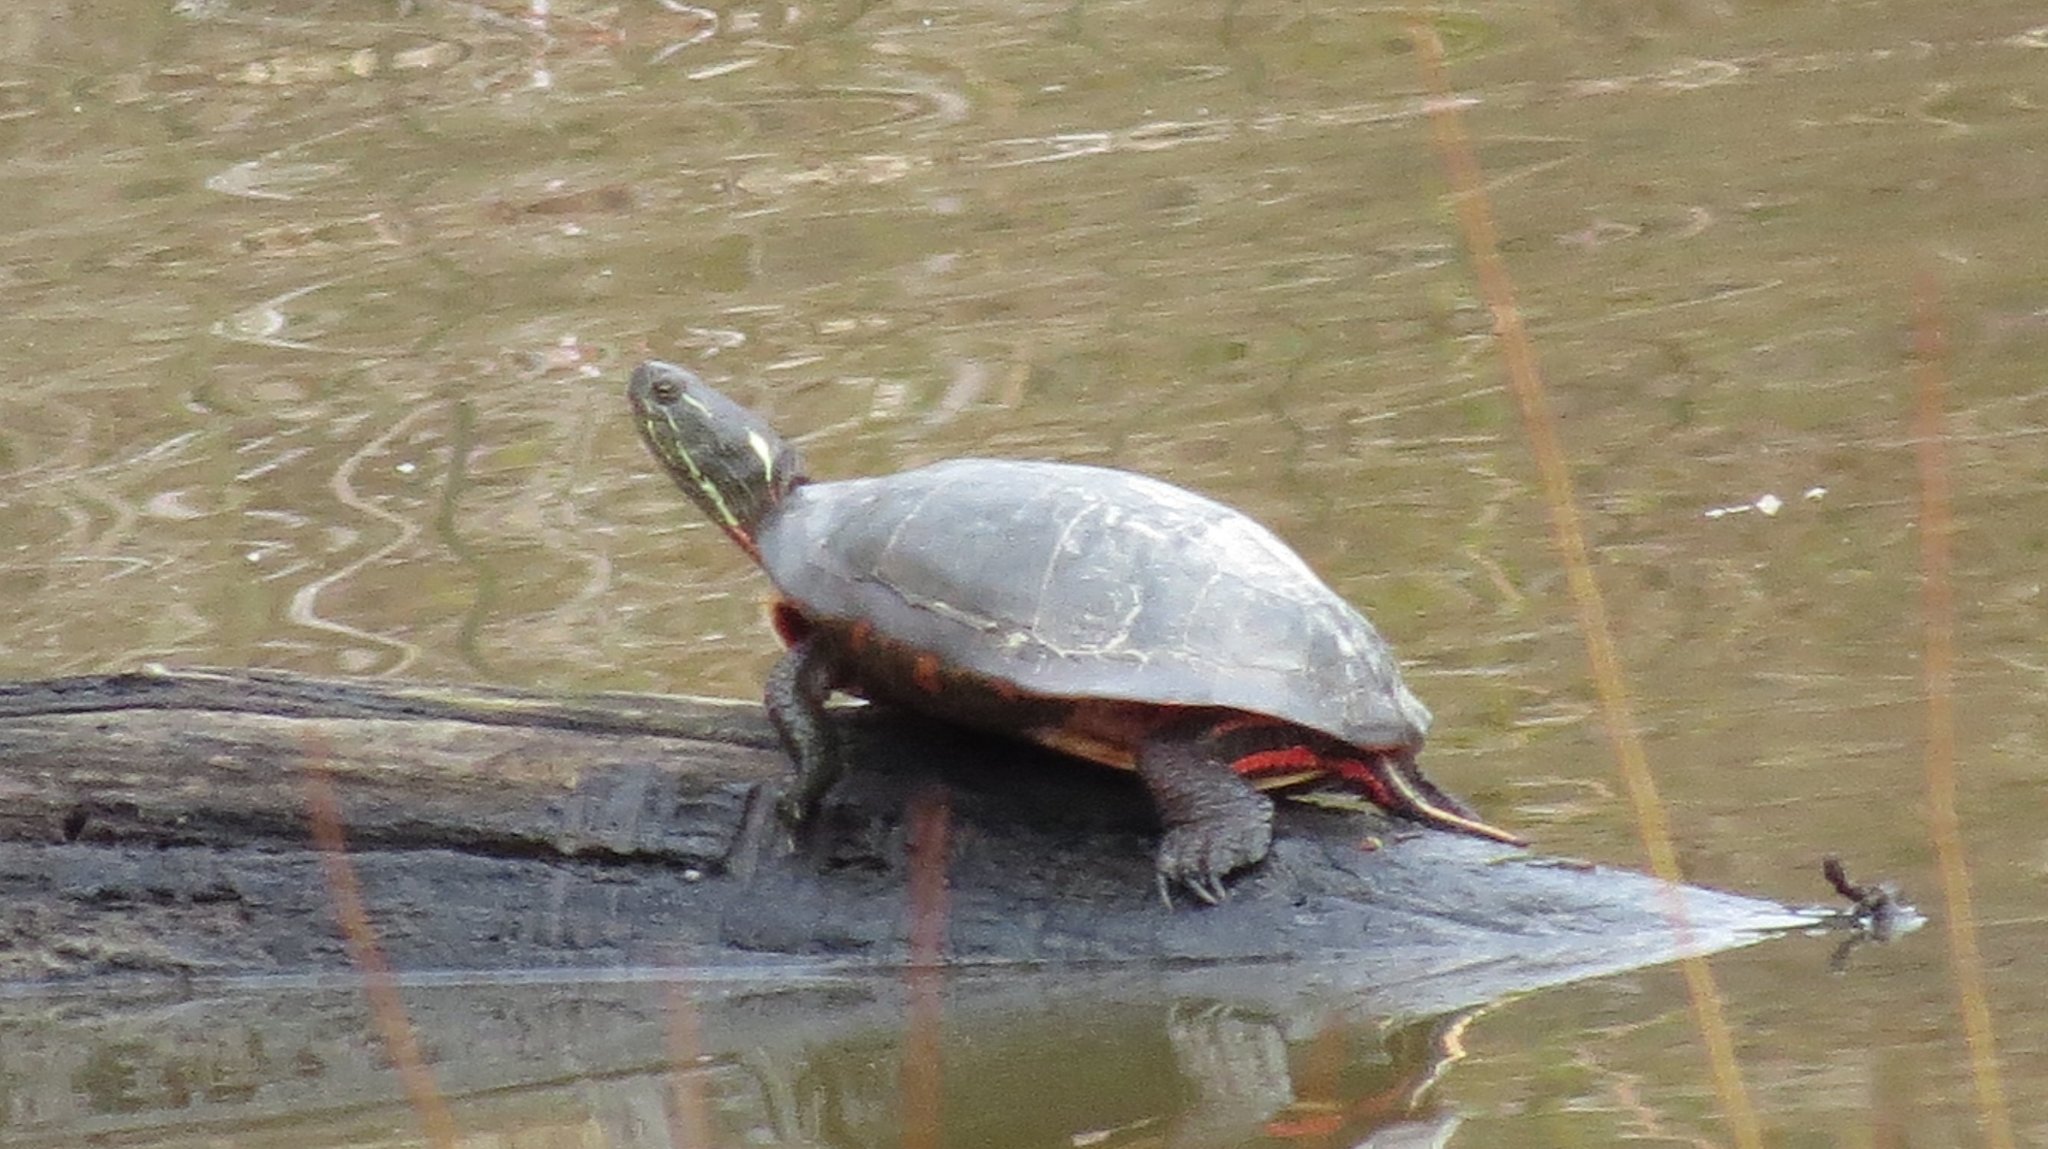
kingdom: Animalia
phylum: Chordata
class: Testudines
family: Emydidae
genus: Chrysemys
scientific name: Chrysemys picta
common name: Painted turtle
